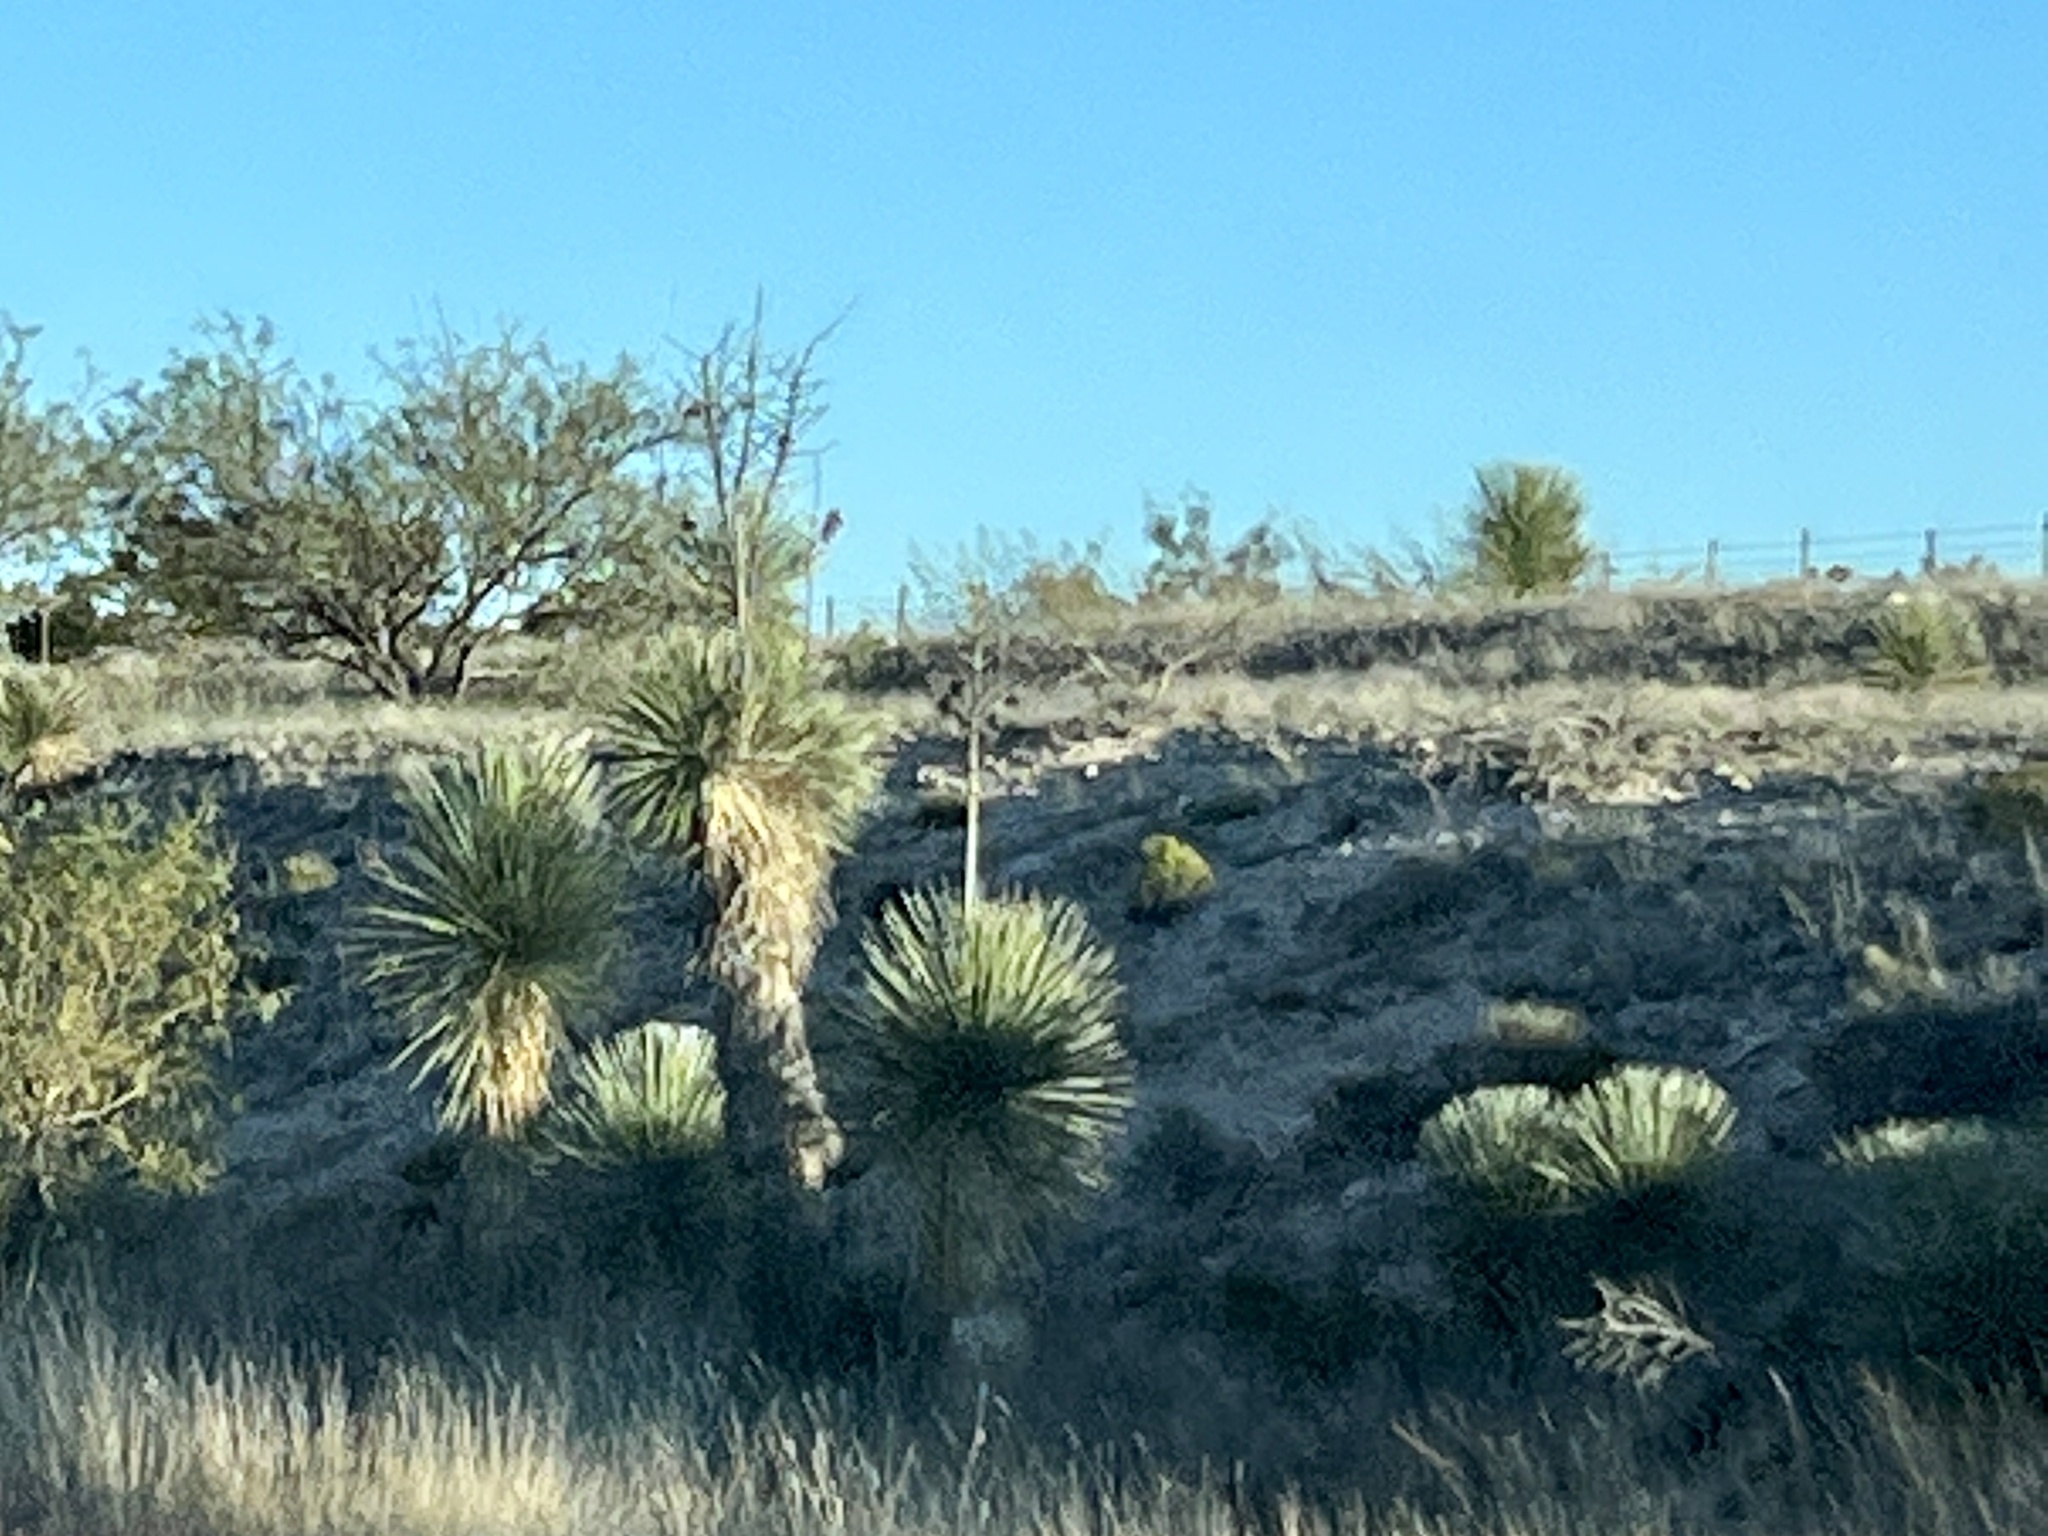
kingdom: Plantae
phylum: Tracheophyta
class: Liliopsida
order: Asparagales
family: Asparagaceae
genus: Yucca
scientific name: Yucca elata
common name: Palmella
